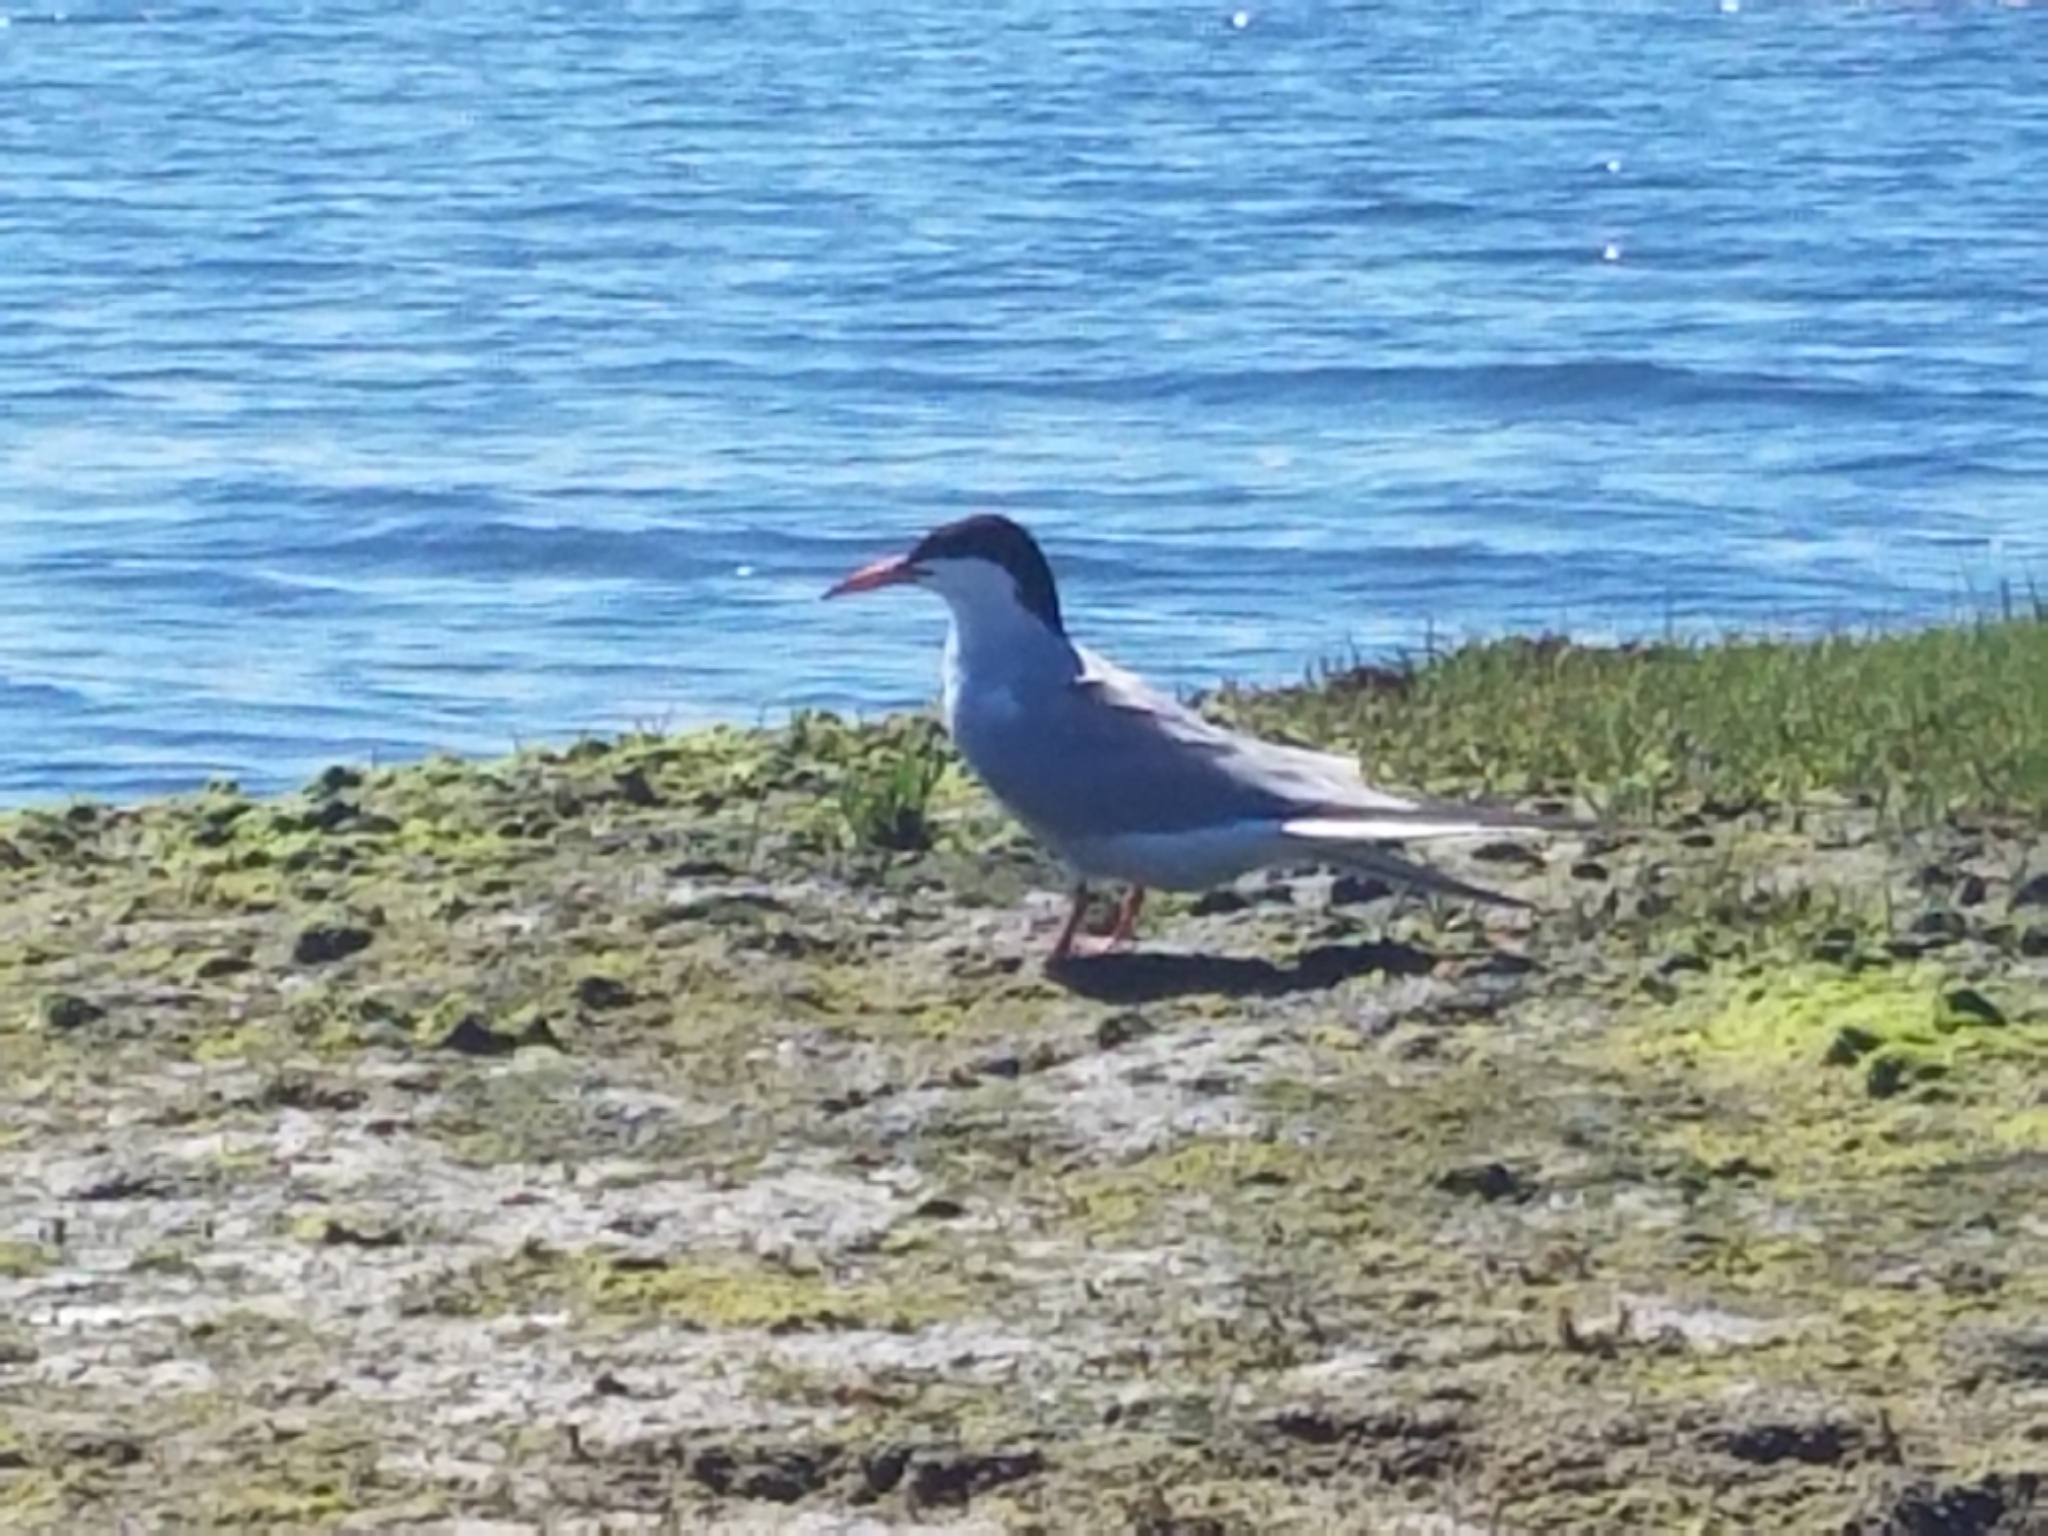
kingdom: Animalia
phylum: Chordata
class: Aves
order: Charadriiformes
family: Laridae
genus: Sterna
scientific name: Sterna hirundo
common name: Common tern
